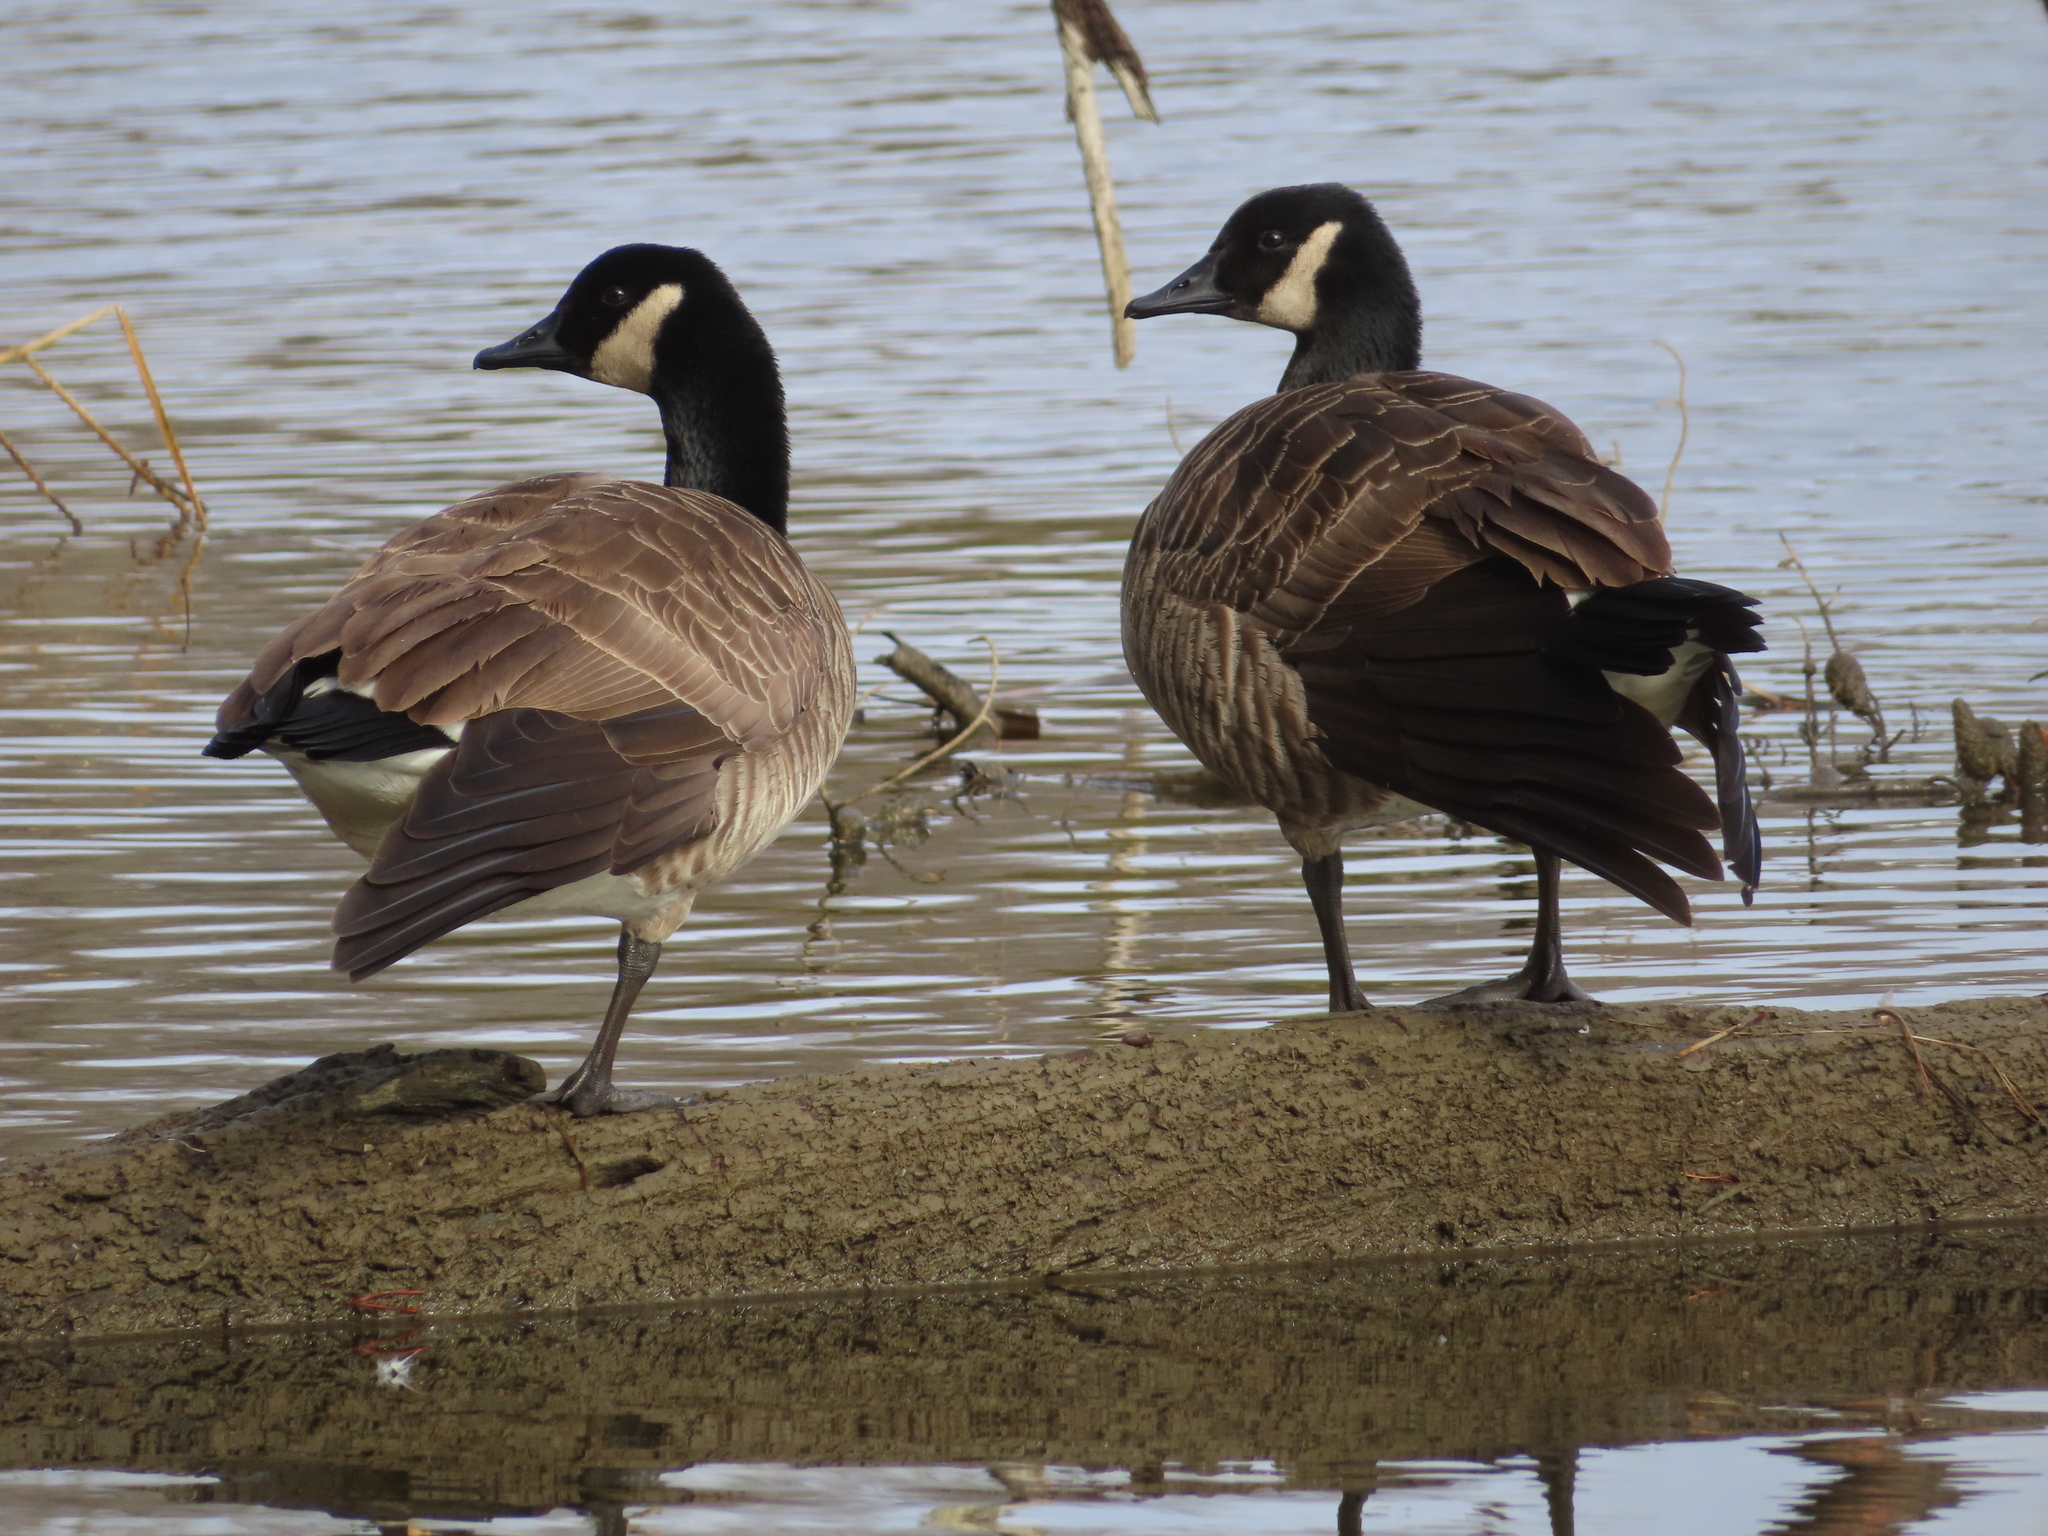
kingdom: Animalia
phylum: Chordata
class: Aves
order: Anseriformes
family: Anatidae
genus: Branta
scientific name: Branta canadensis
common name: Canada goose
